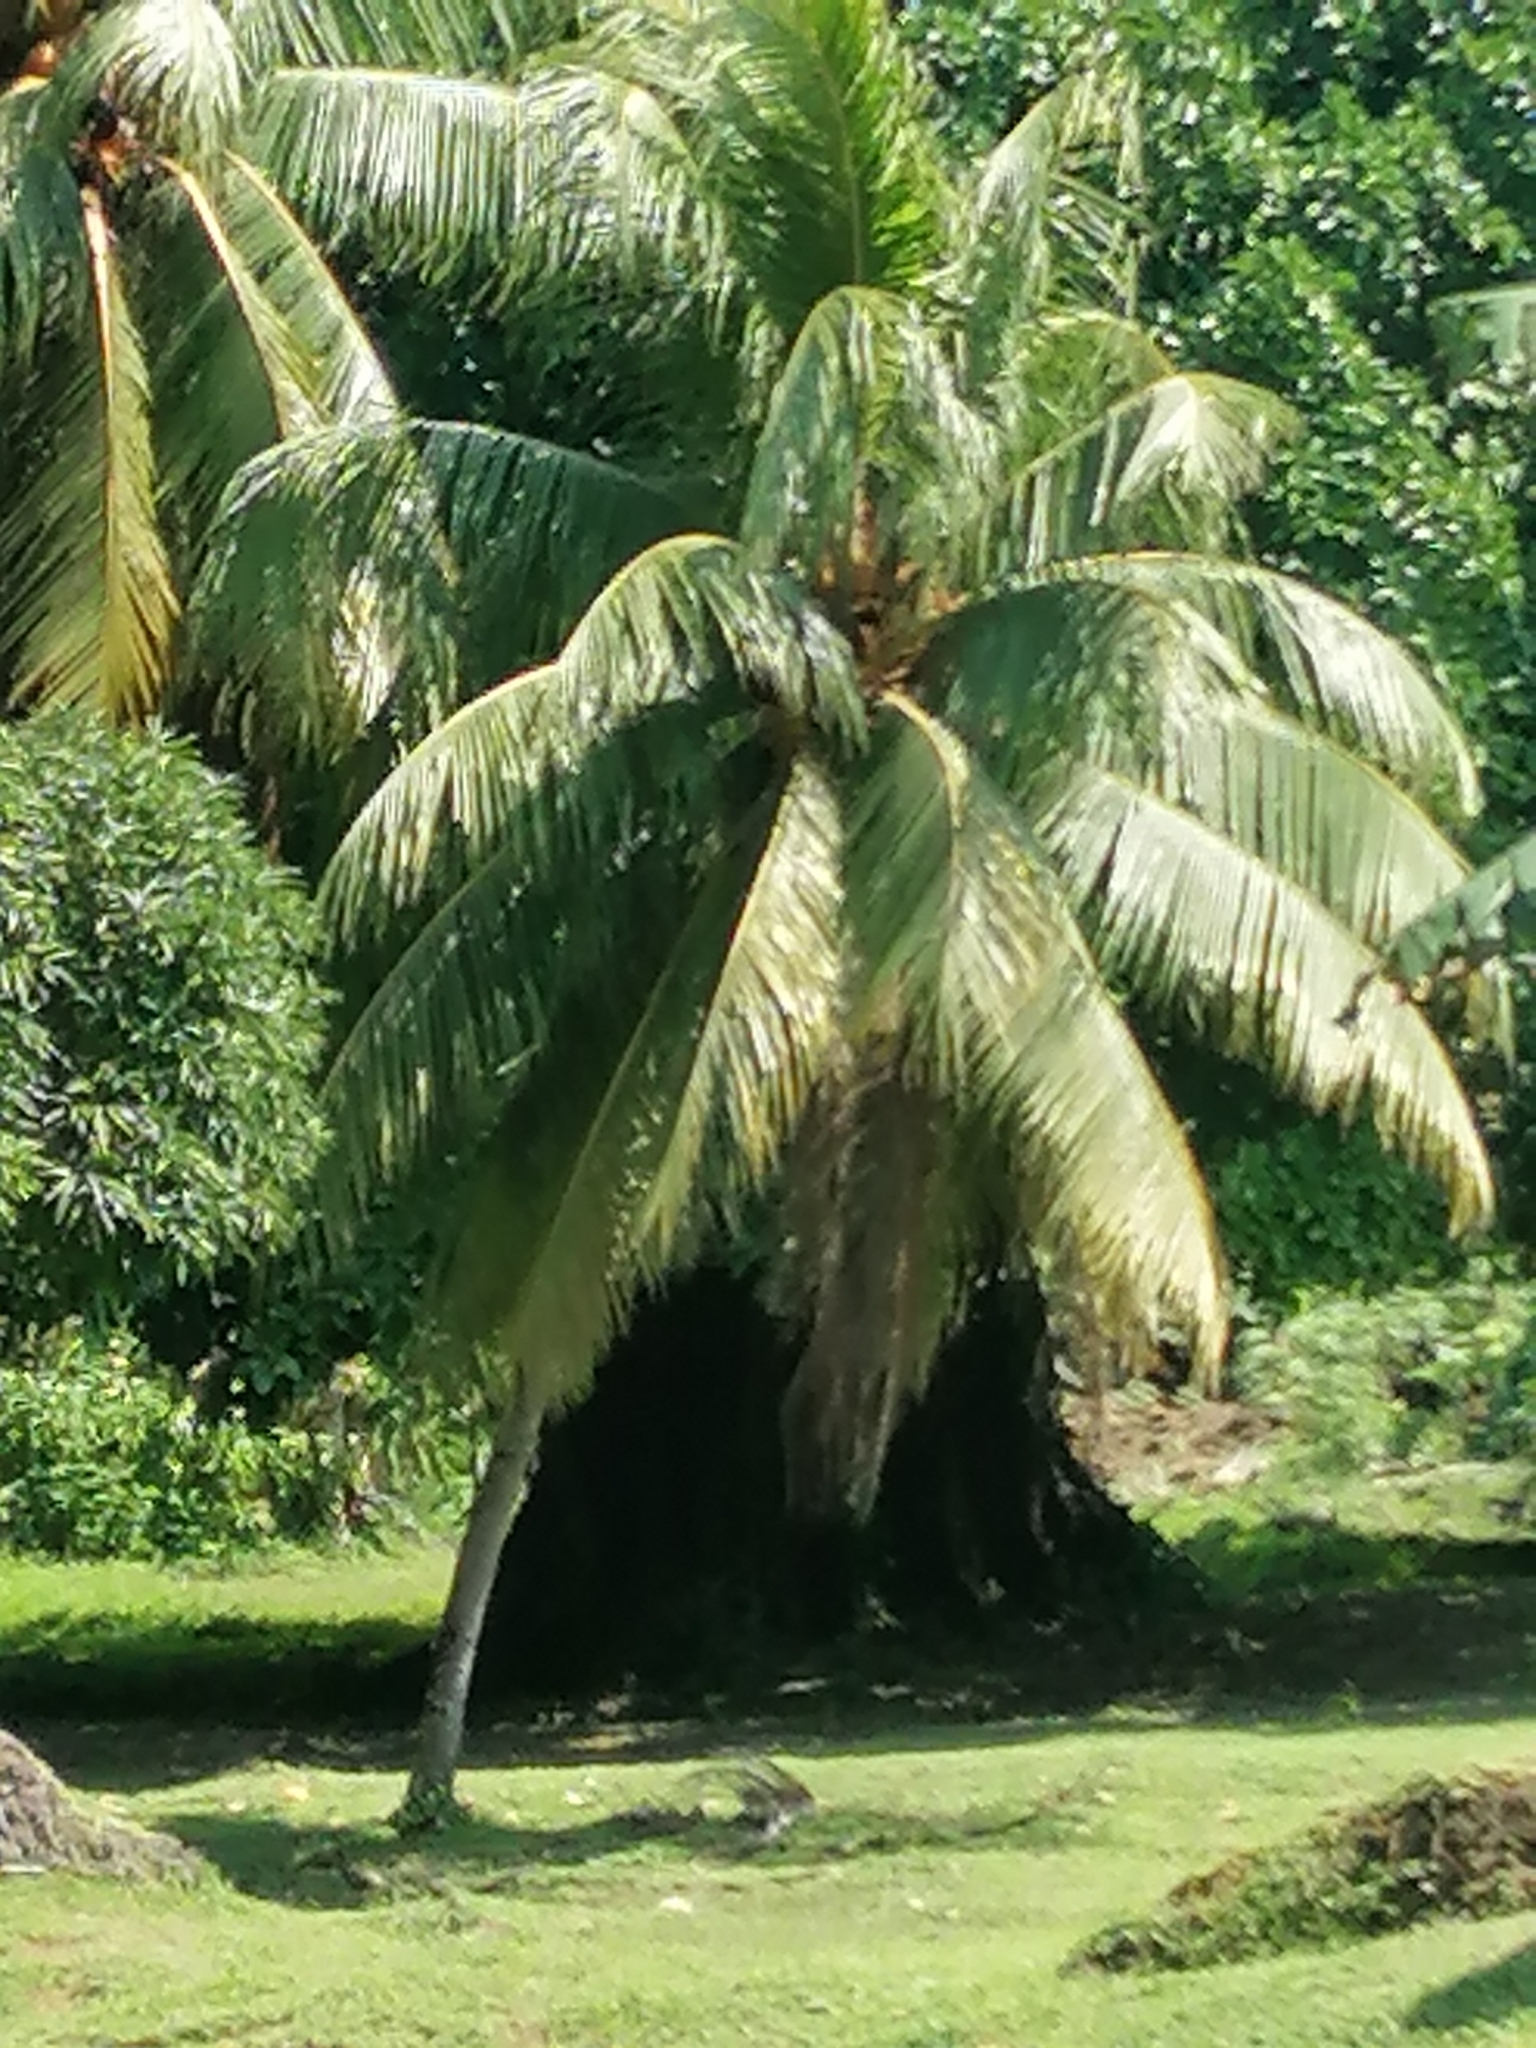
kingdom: Plantae
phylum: Tracheophyta
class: Liliopsida
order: Arecales
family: Arecaceae
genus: Cocos
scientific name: Cocos nucifera
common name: Coconut palm
